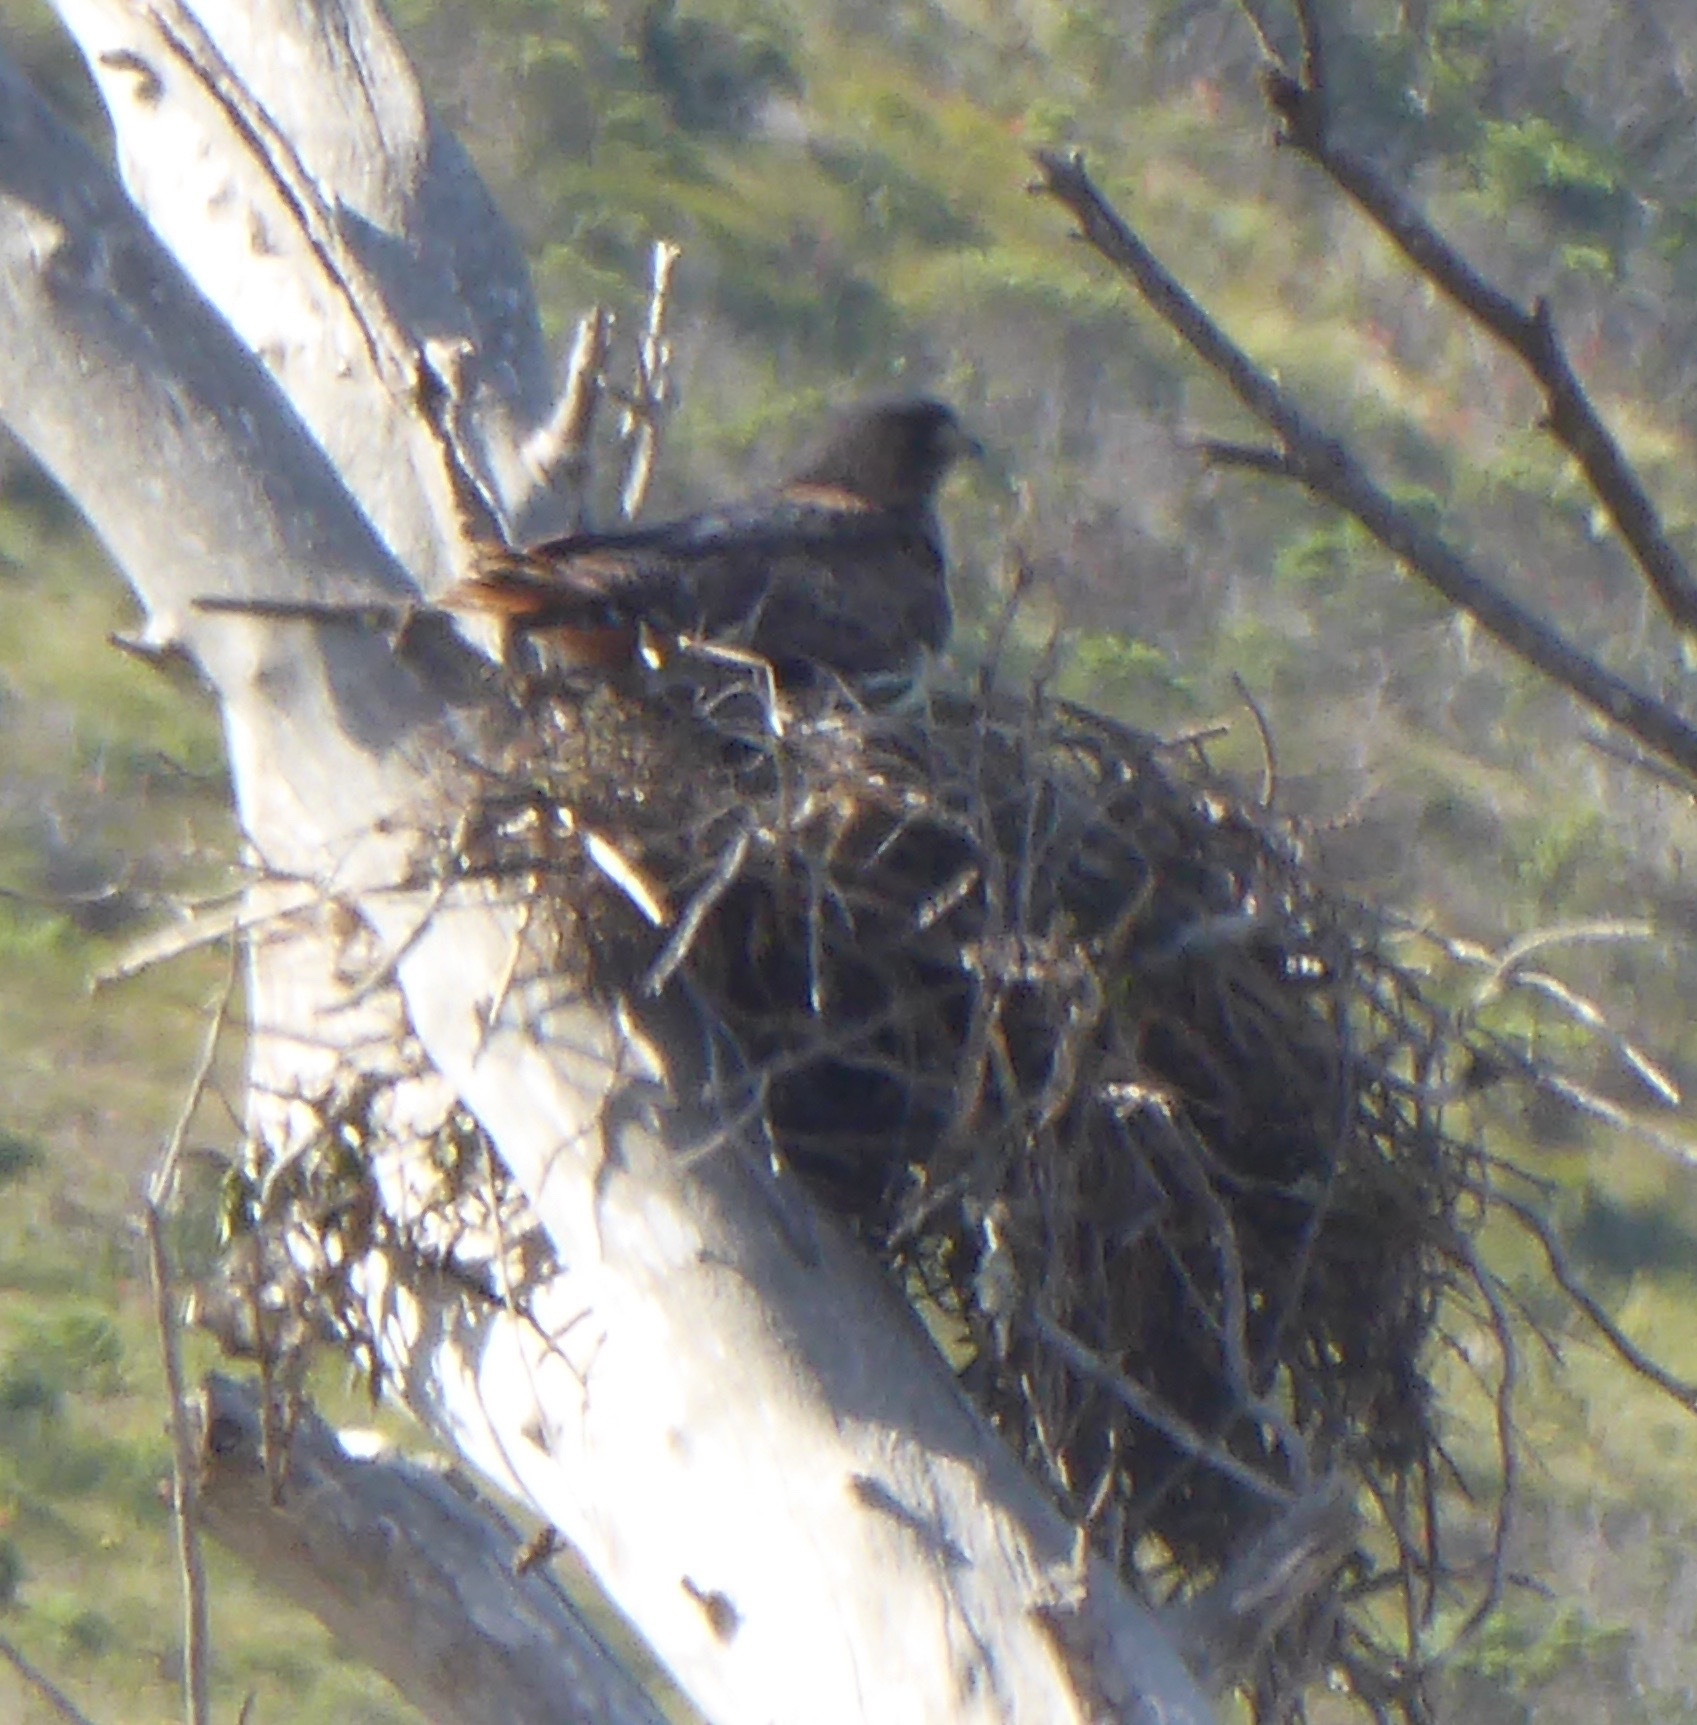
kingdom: Animalia
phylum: Chordata
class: Aves
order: Accipitriformes
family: Accipitridae
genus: Buteo
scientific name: Buteo jamaicensis
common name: Red-tailed hawk
